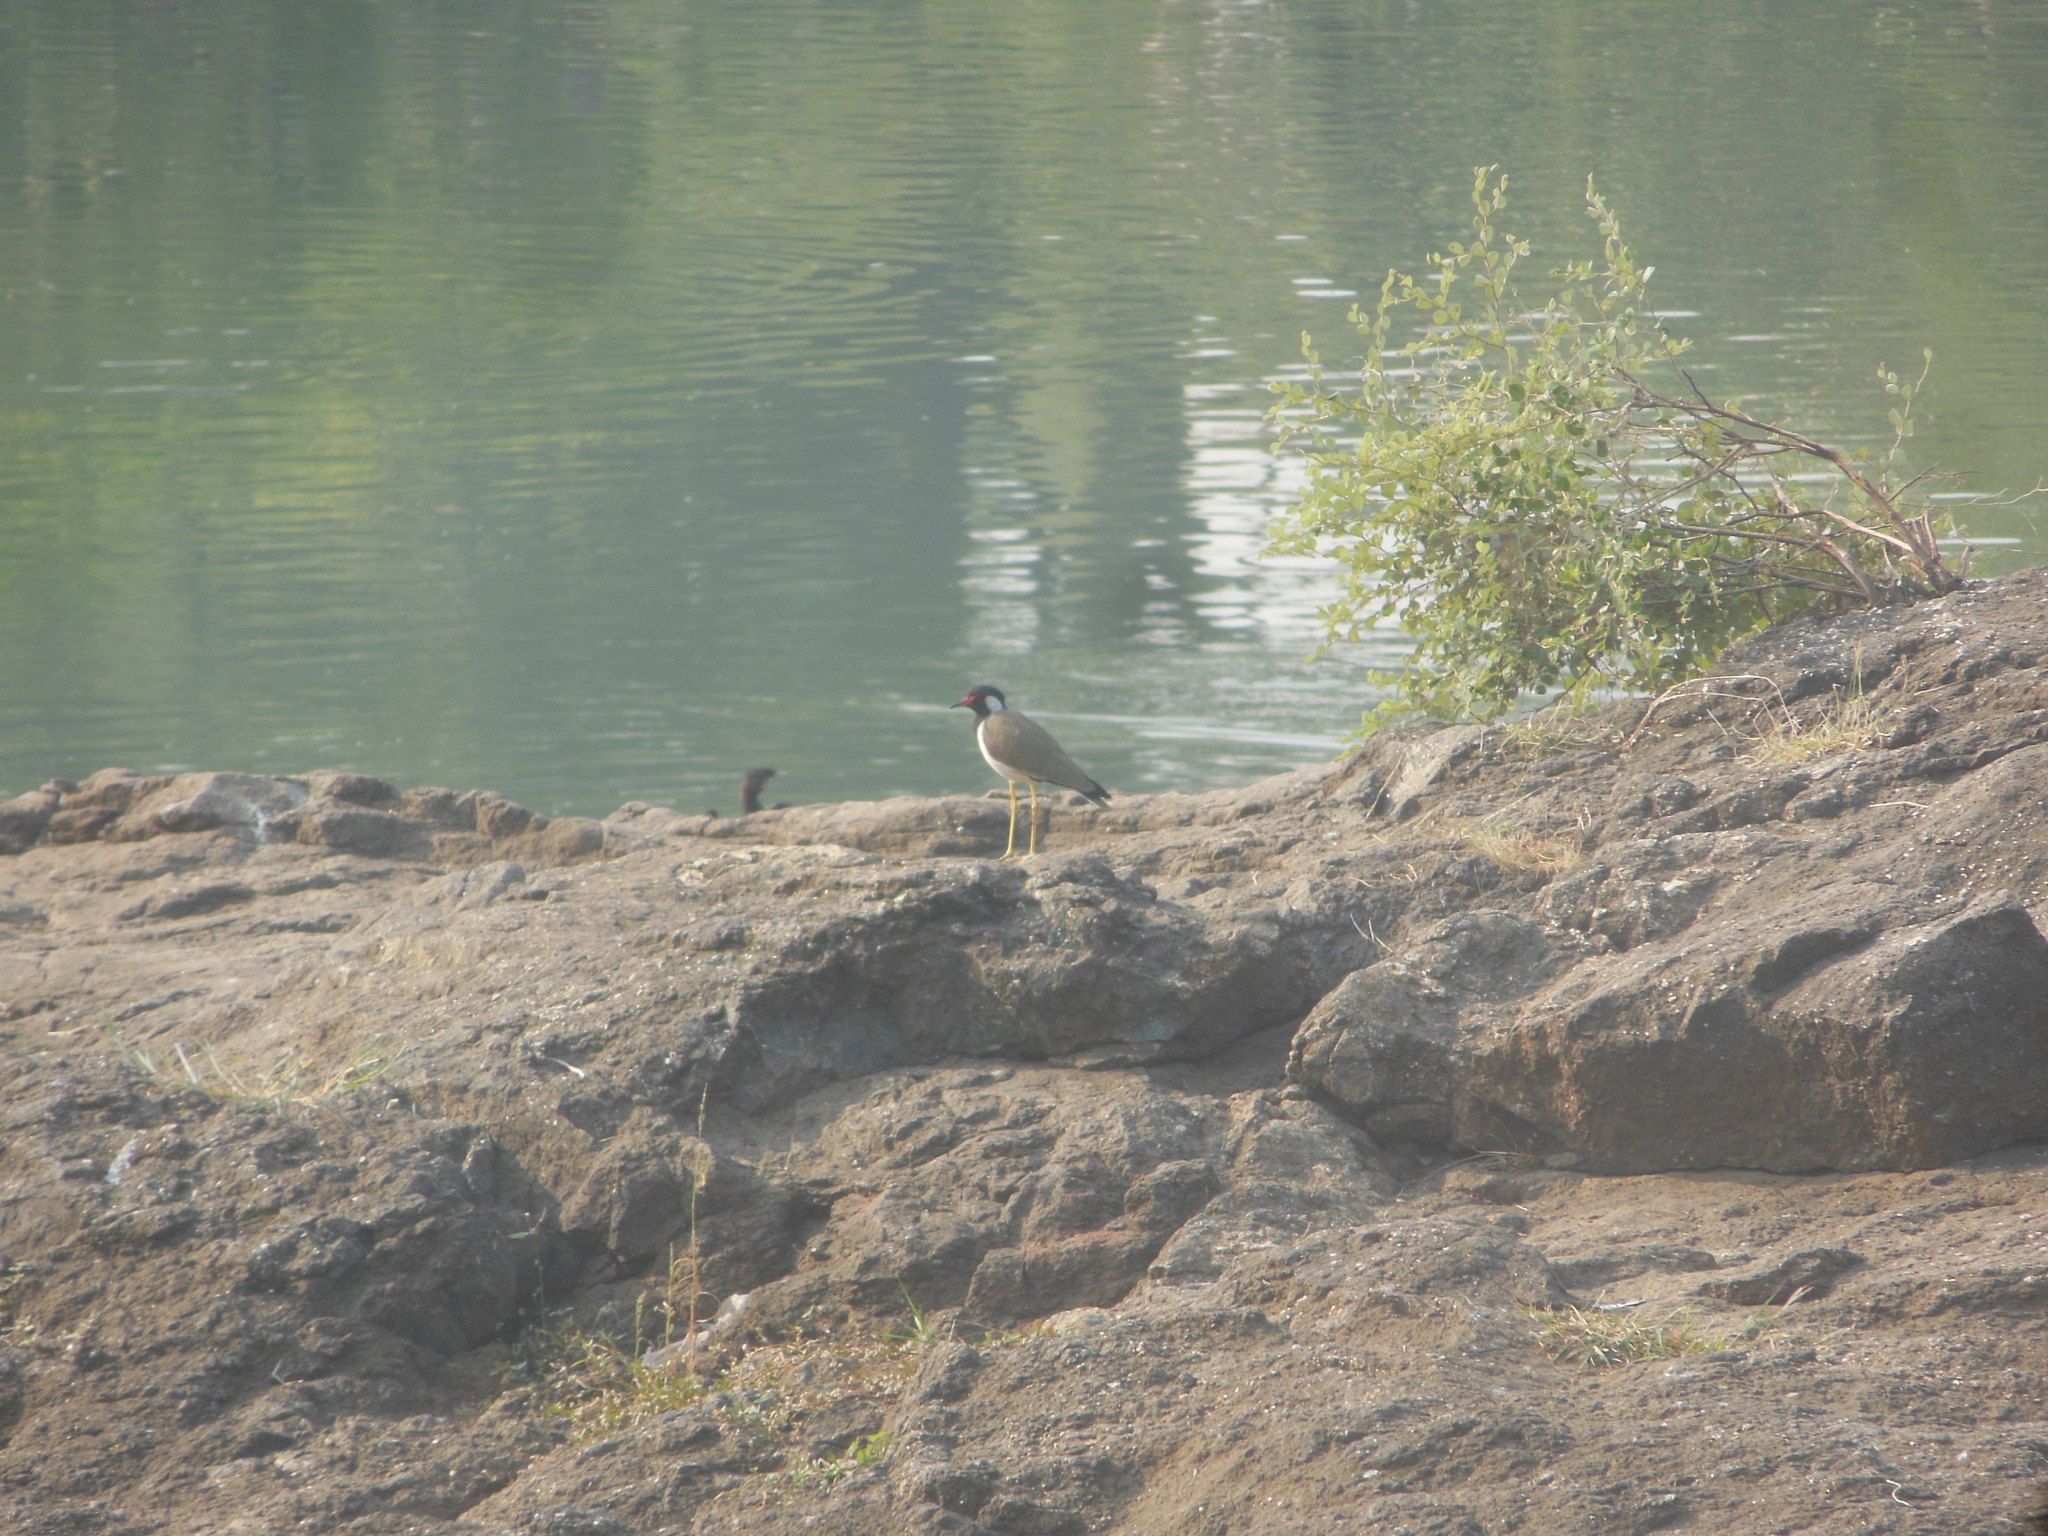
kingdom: Animalia
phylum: Chordata
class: Aves
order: Charadriiformes
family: Charadriidae
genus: Vanellus
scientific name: Vanellus indicus
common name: Red-wattled lapwing
